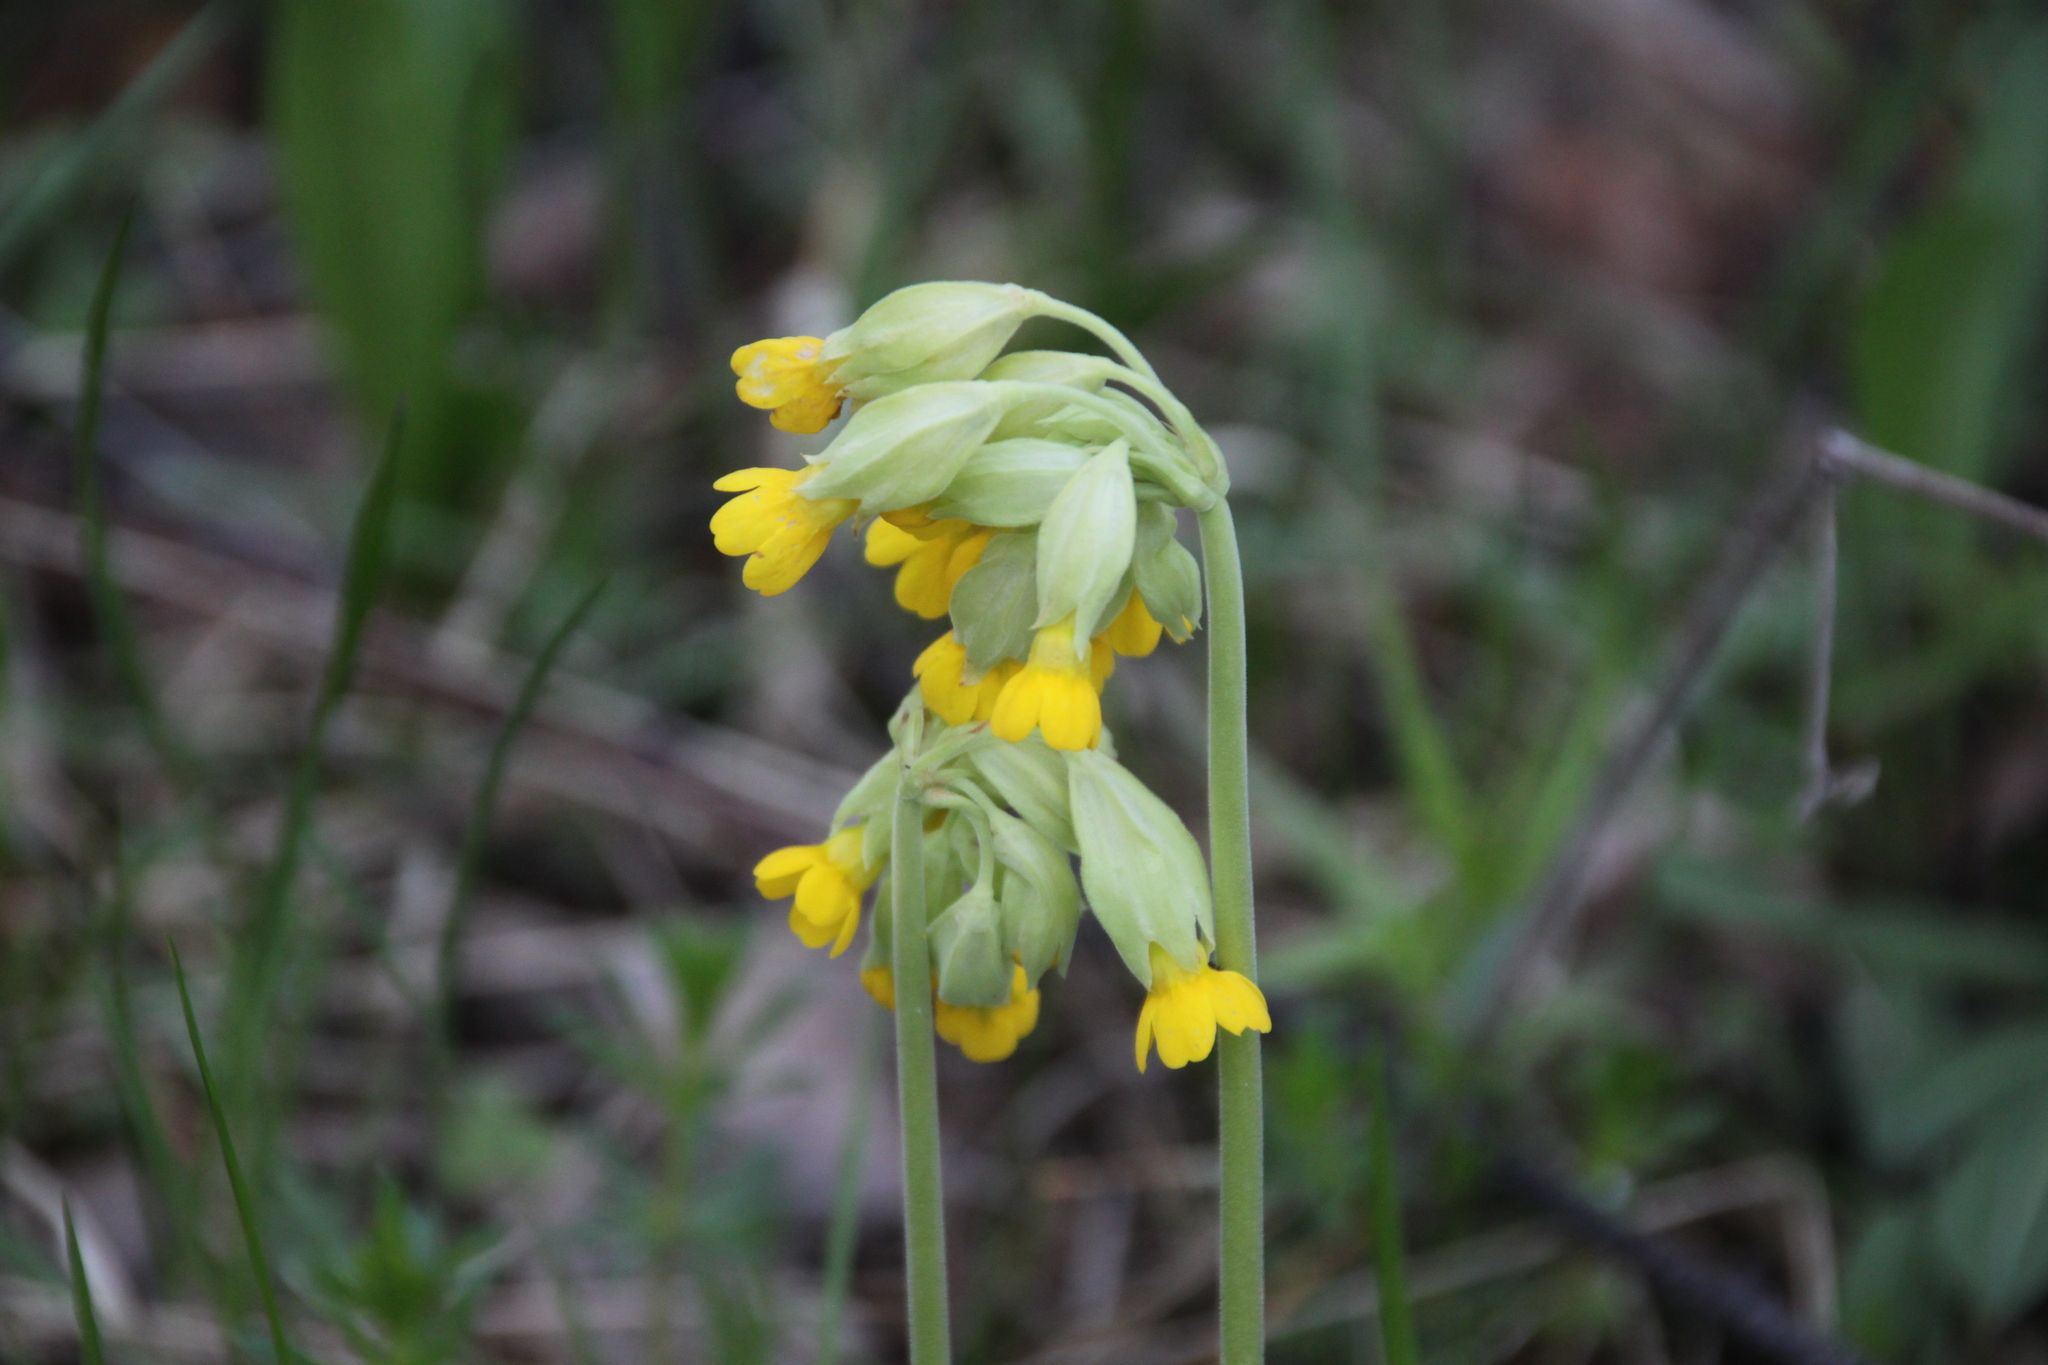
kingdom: Plantae
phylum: Tracheophyta
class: Magnoliopsida
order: Ericales
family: Primulaceae
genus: Primula
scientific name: Primula veris
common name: Cowslip
